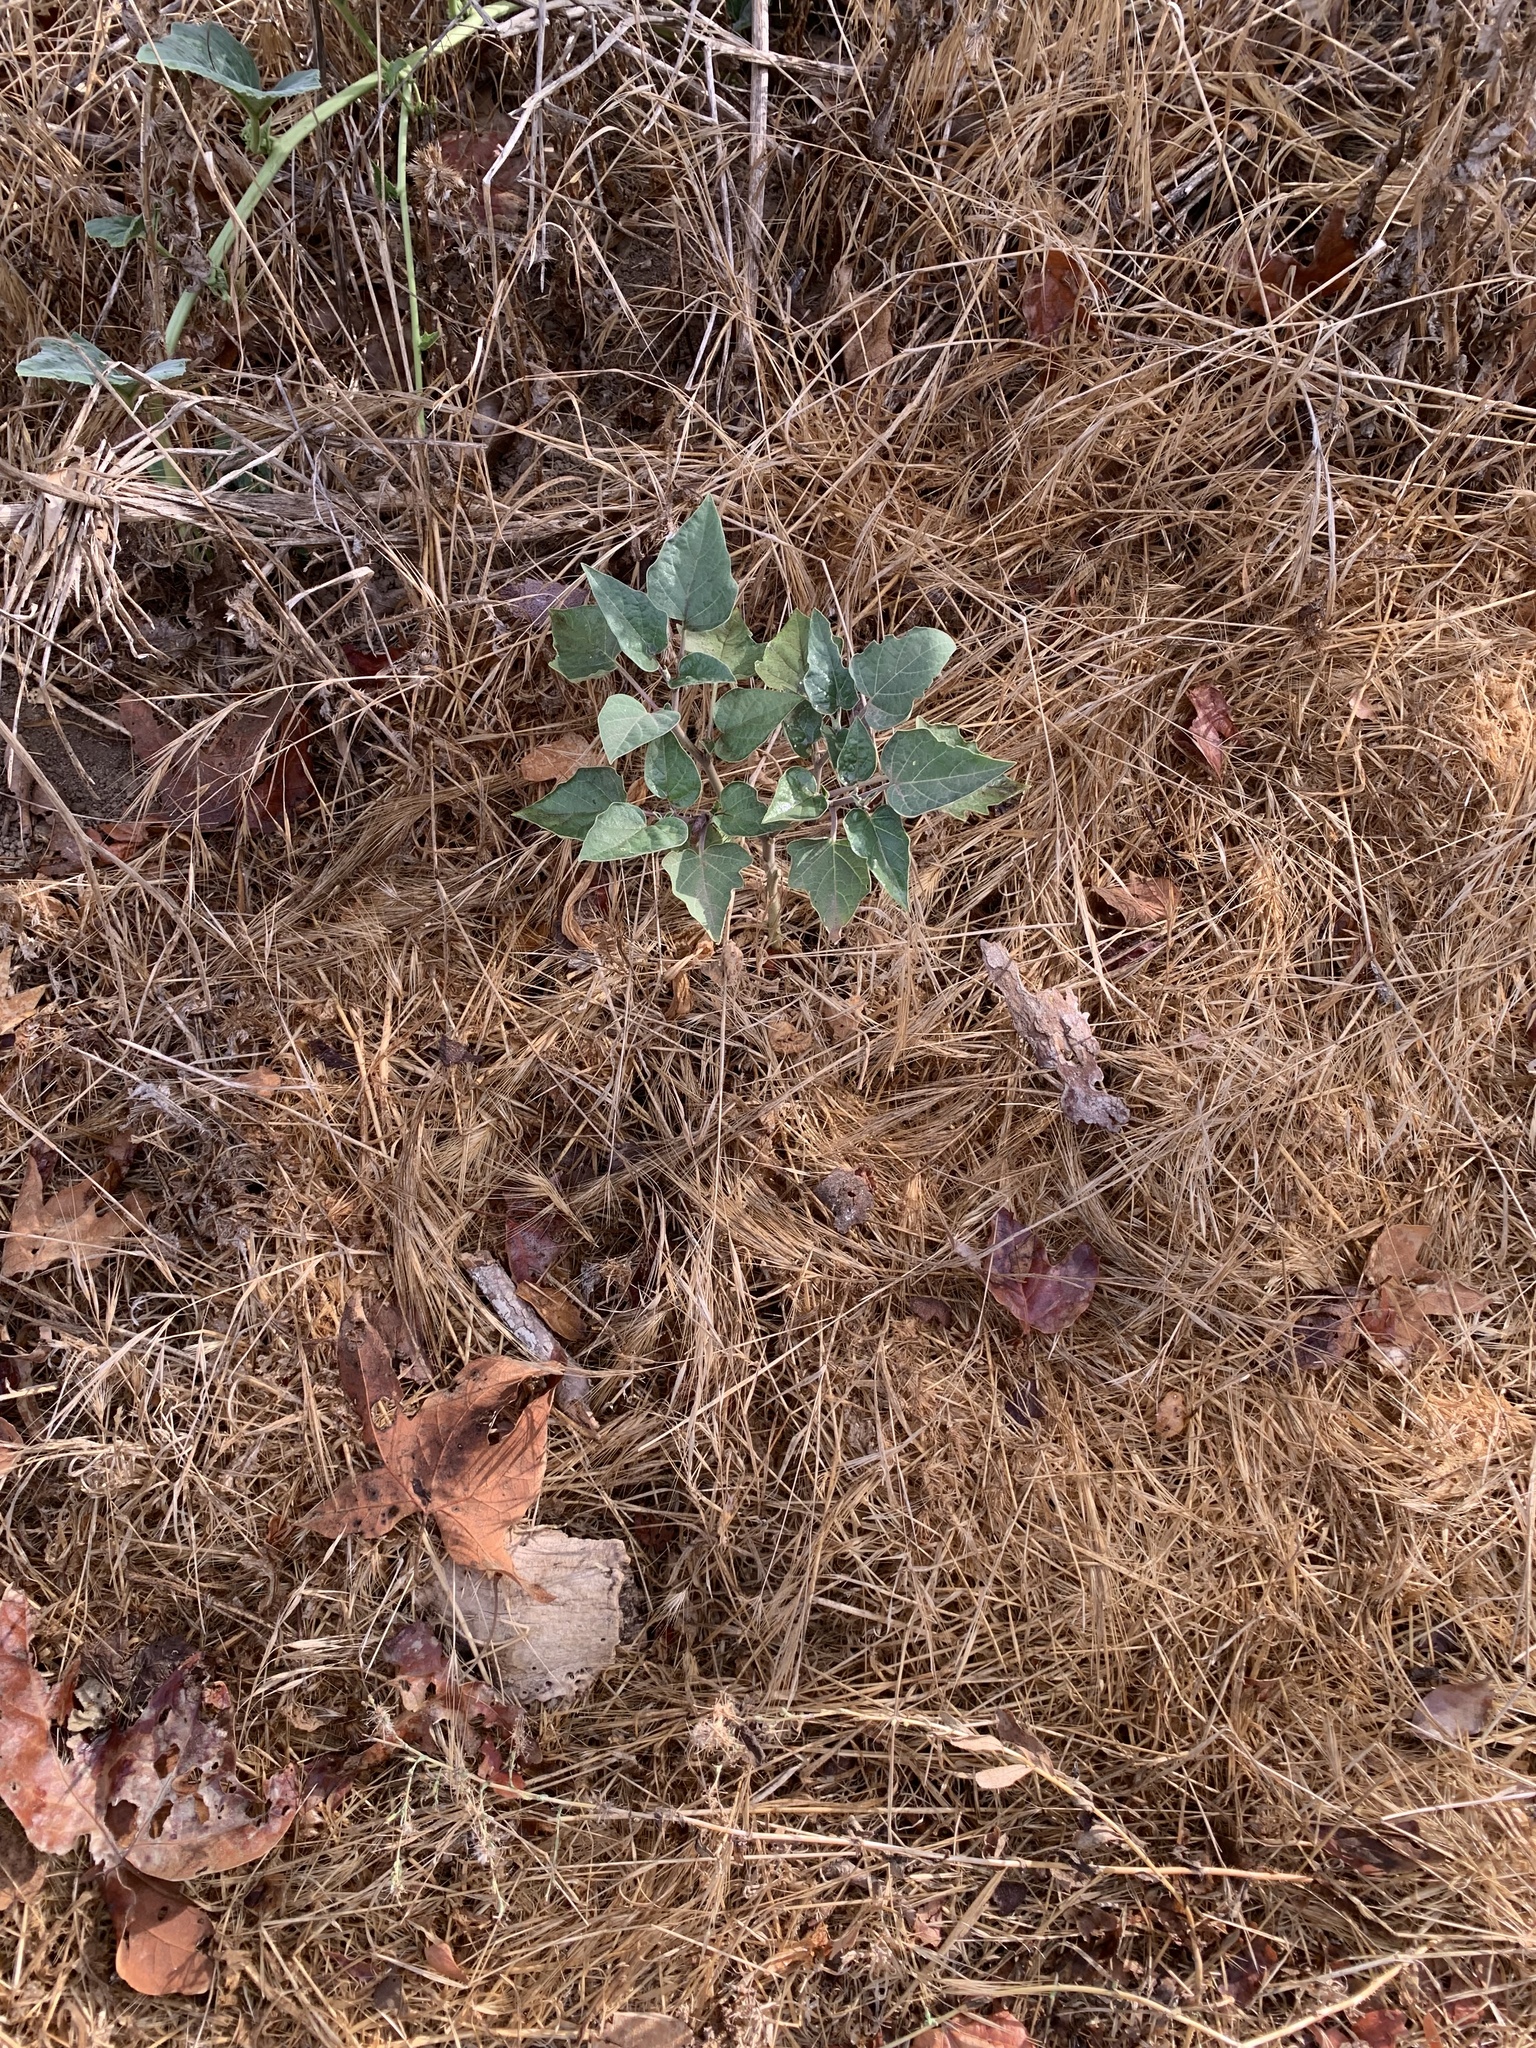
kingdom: Plantae
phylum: Tracheophyta
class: Magnoliopsida
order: Solanales
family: Solanaceae
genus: Datura
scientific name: Datura wrightii
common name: Sacred thorn-apple
